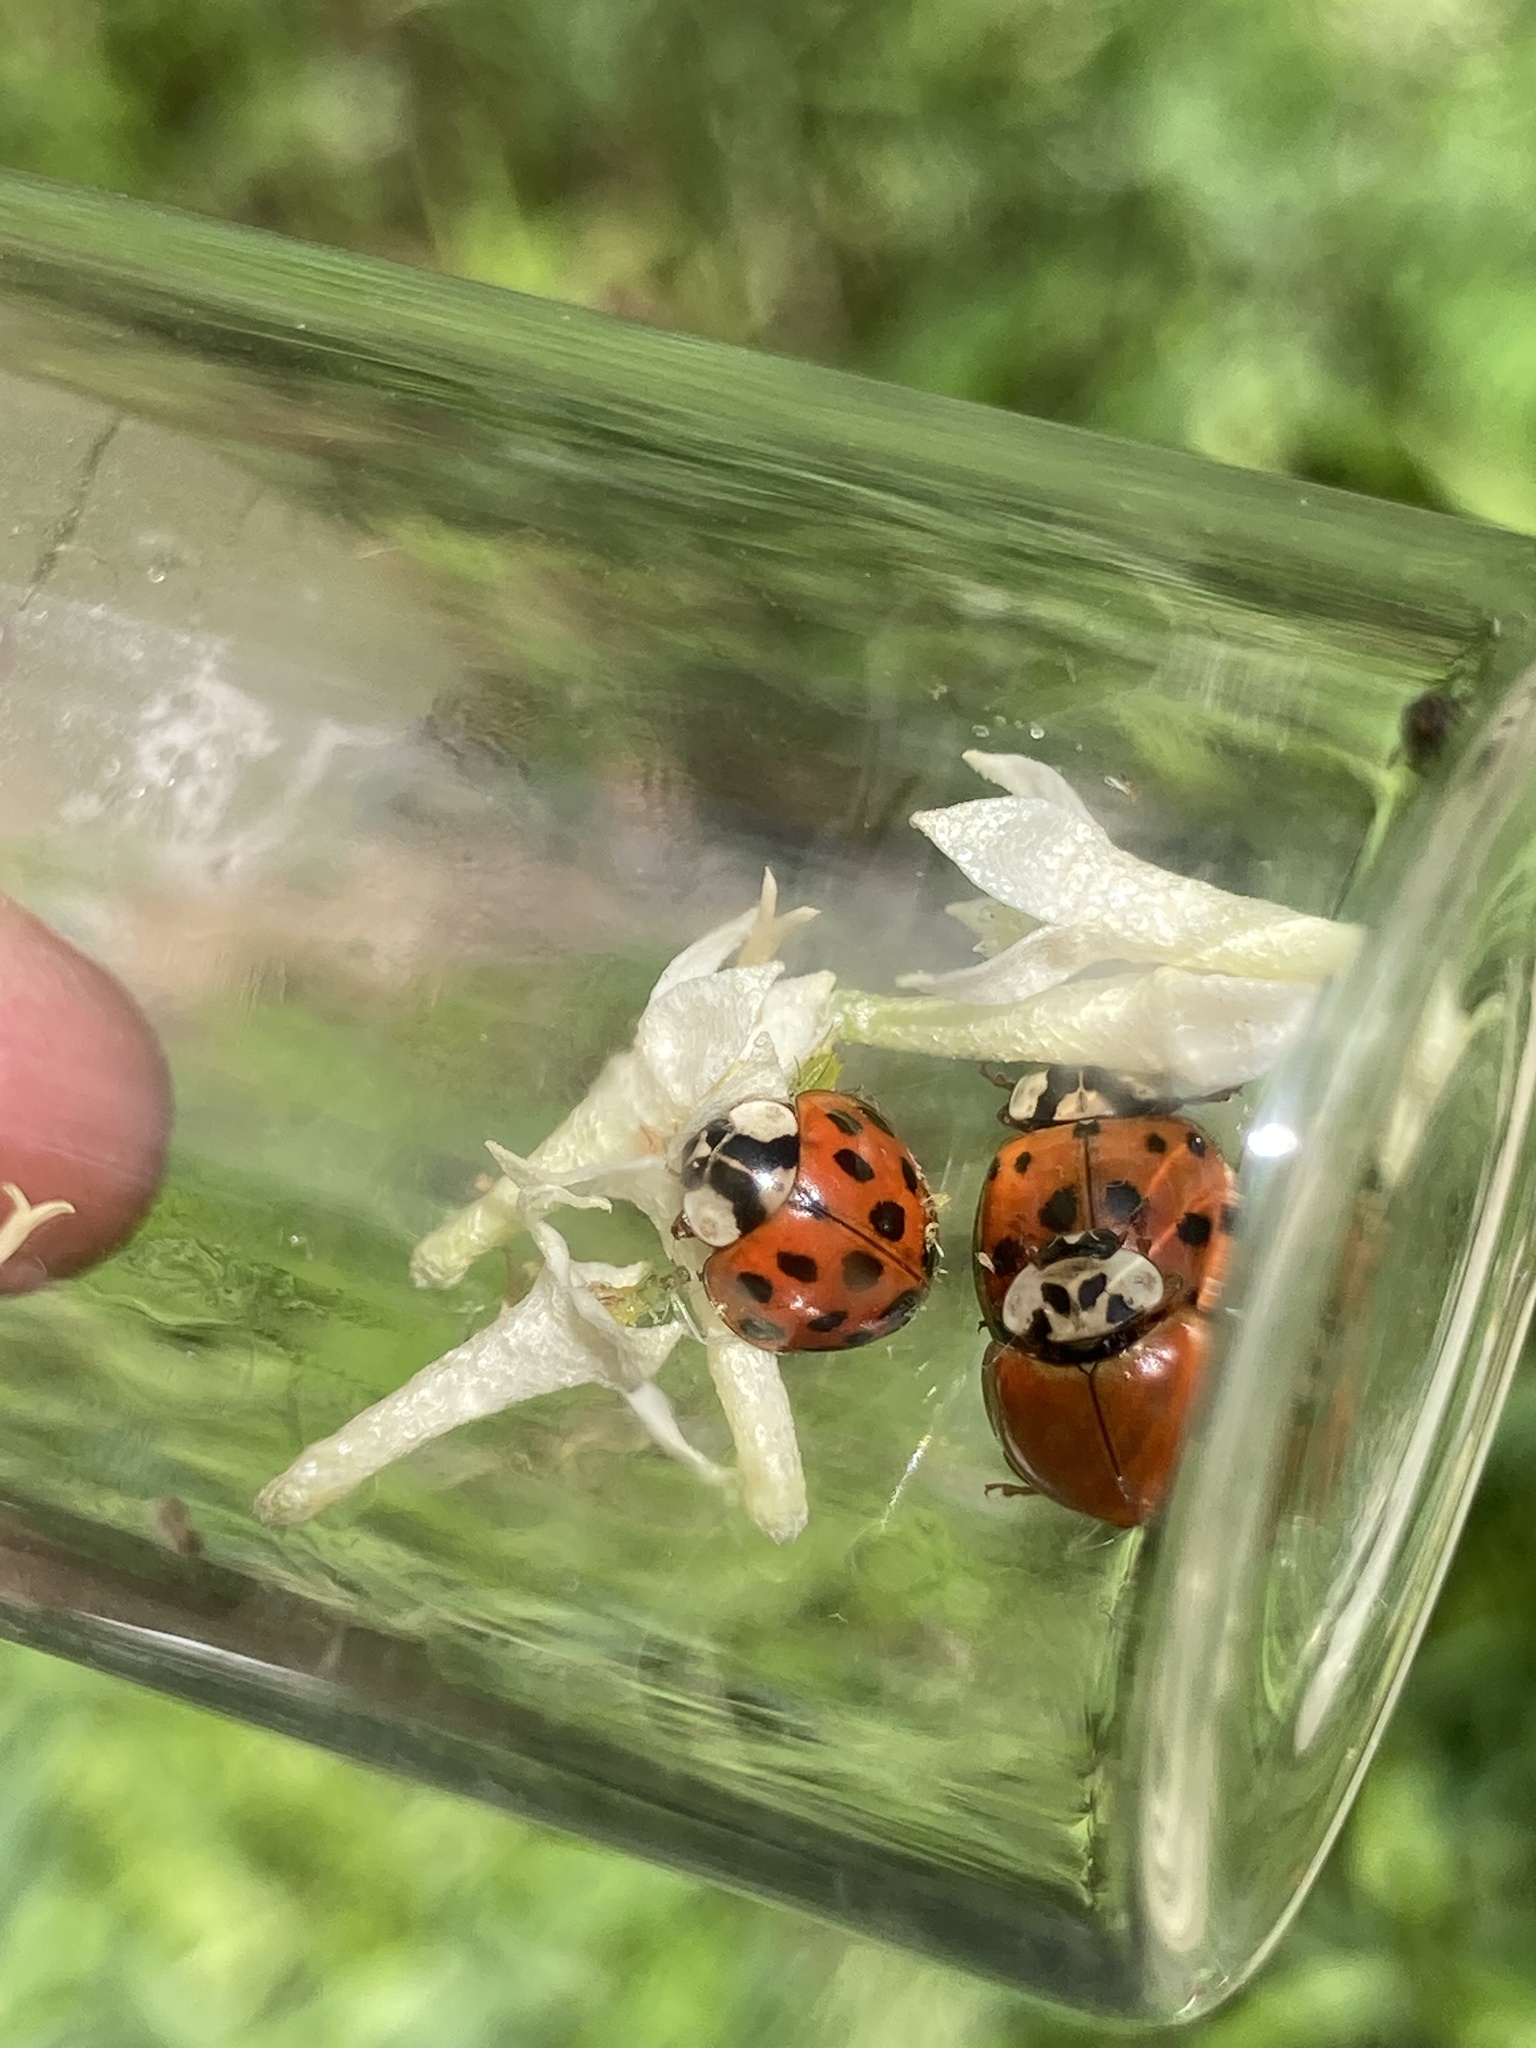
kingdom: Animalia
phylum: Arthropoda
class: Insecta
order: Coleoptera
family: Coccinellidae
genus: Harmonia
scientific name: Harmonia axyridis
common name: Harlequin ladybird
